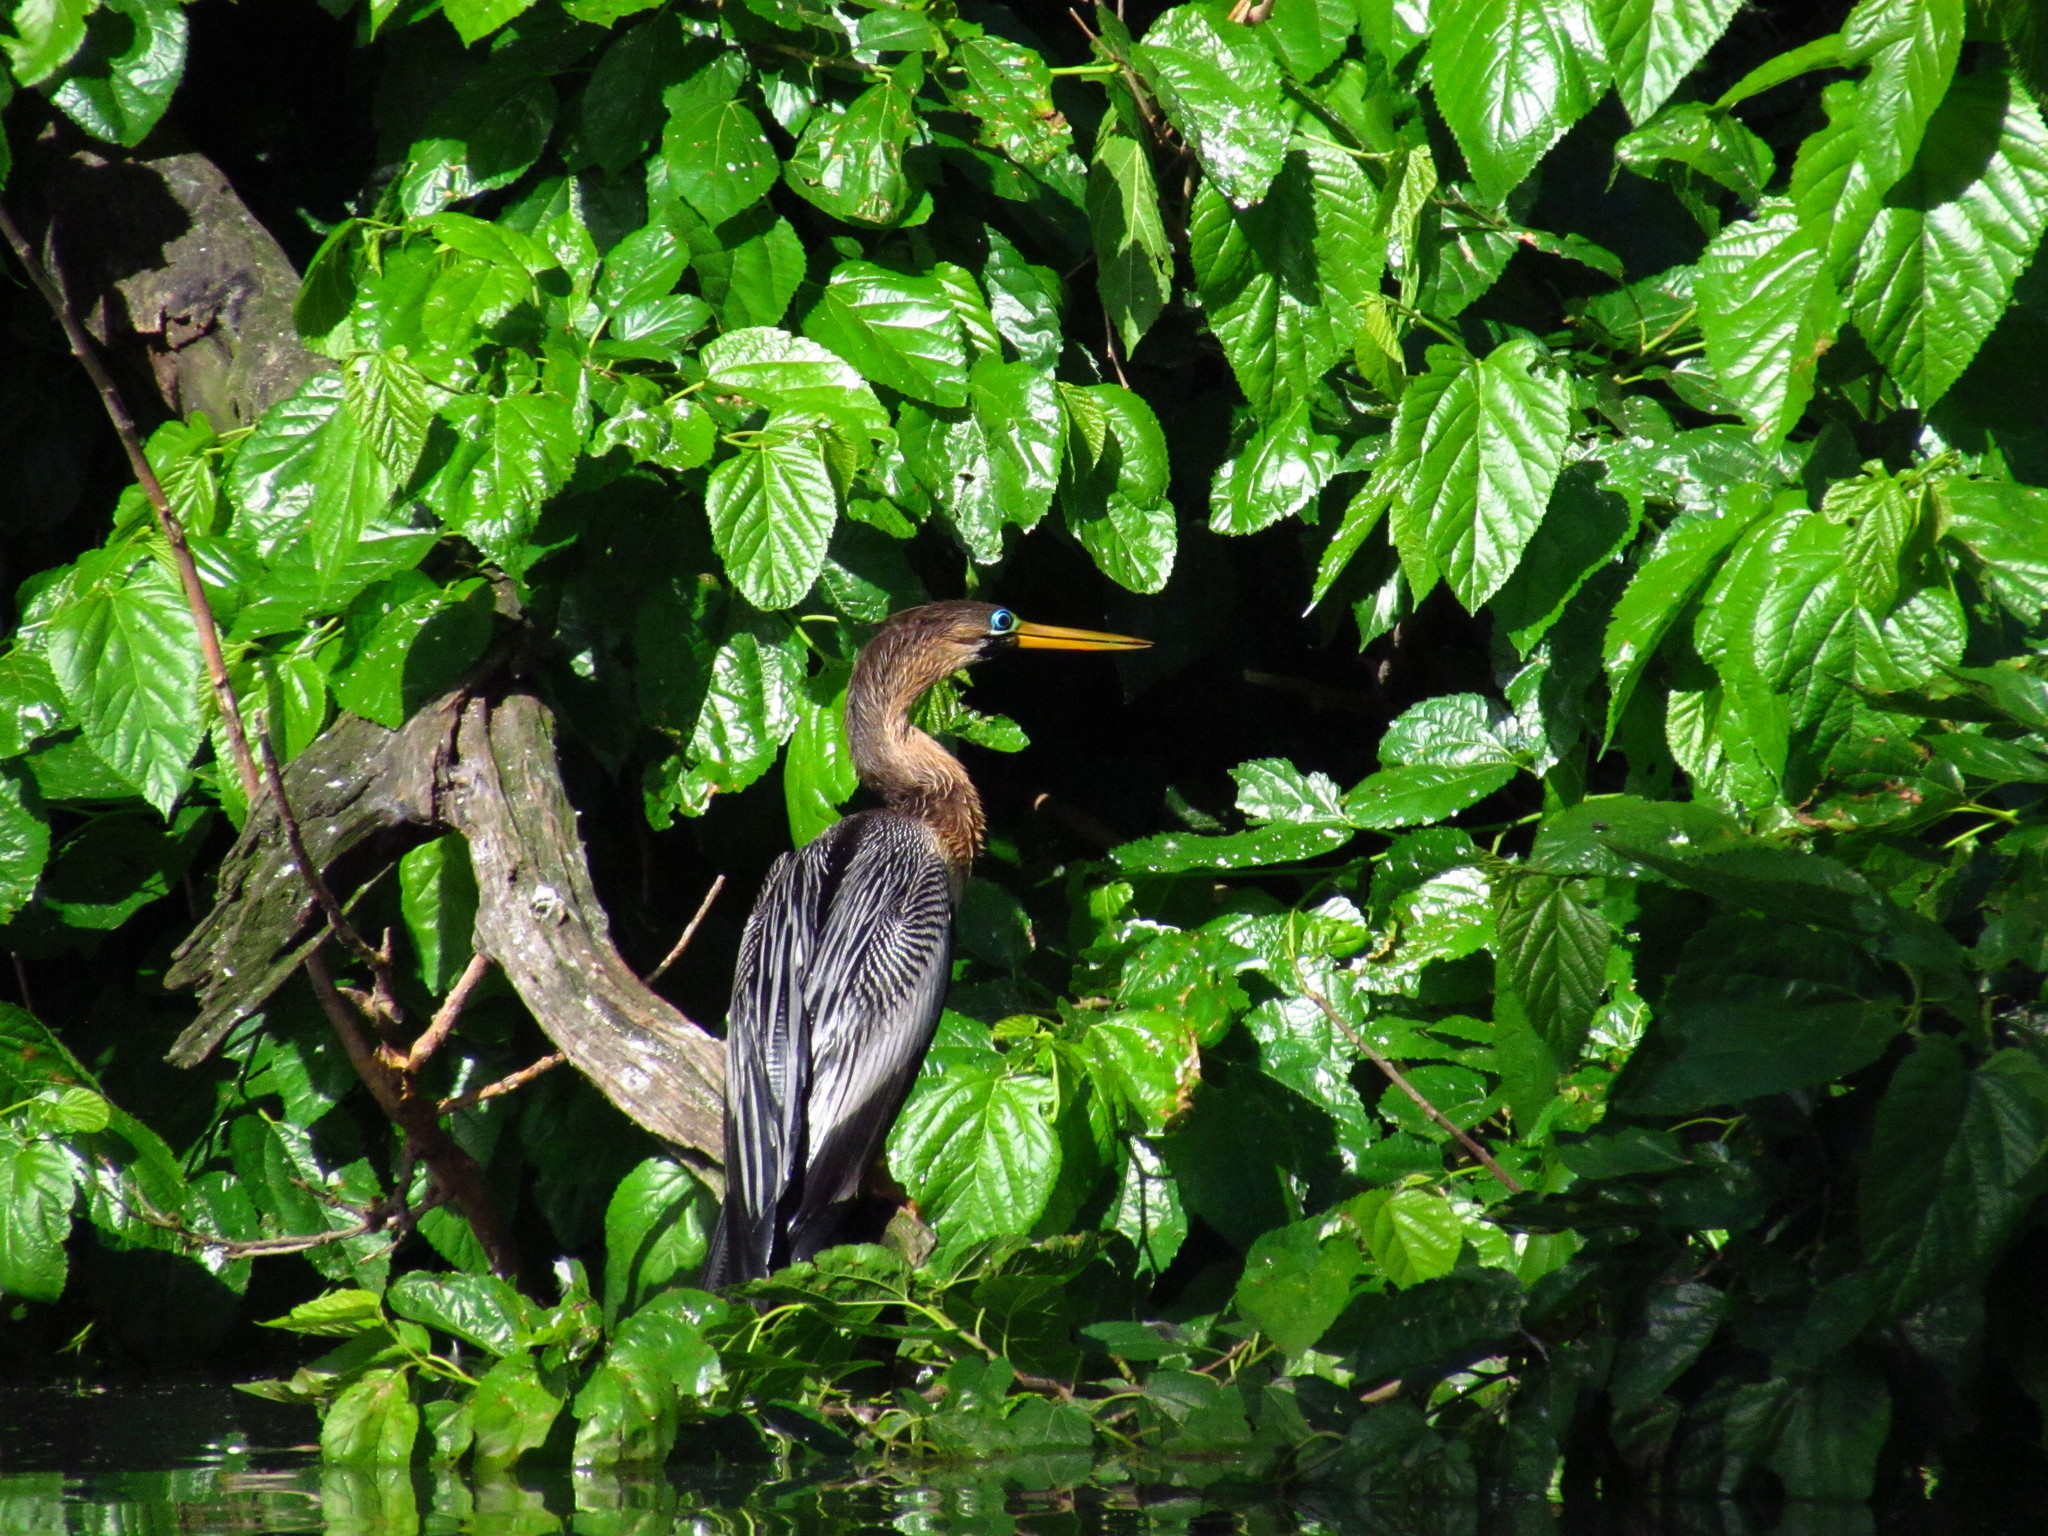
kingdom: Animalia
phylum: Chordata
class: Aves
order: Suliformes
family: Anhingidae
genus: Anhinga
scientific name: Anhinga anhinga
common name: Anhinga
